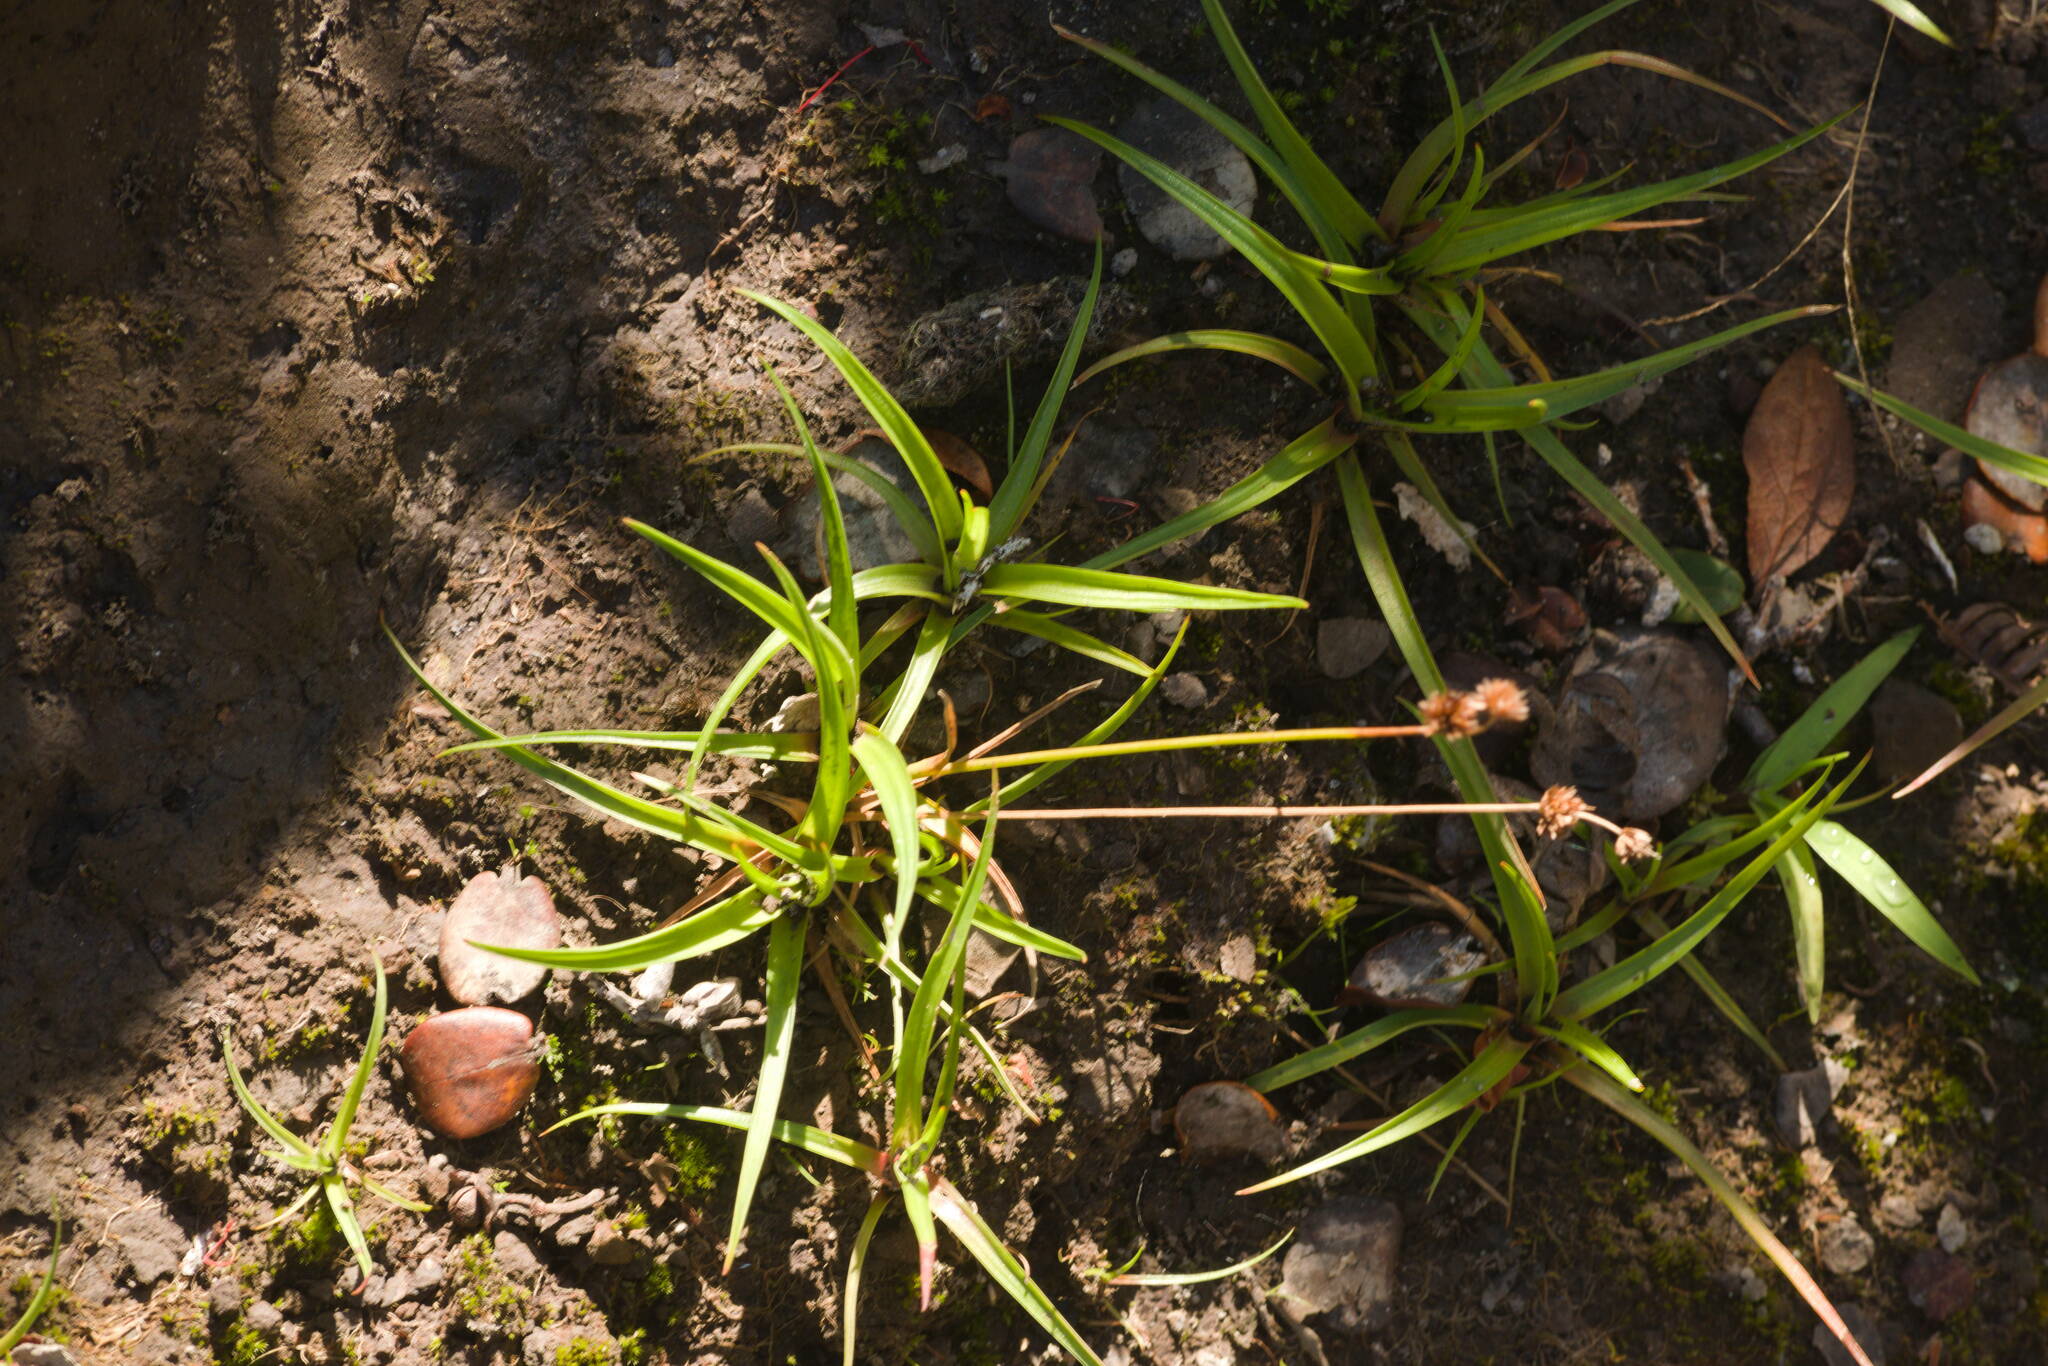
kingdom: Plantae
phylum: Tracheophyta
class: Liliopsida
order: Poales
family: Juncaceae
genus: Juncus
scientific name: Juncus planifolius
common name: Broadleaf rush
